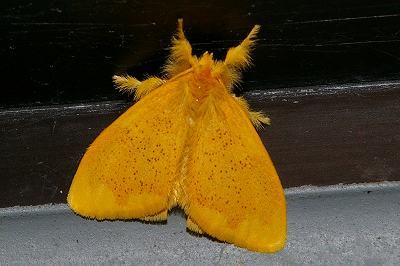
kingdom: Animalia
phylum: Arthropoda
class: Insecta
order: Lepidoptera
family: Erebidae
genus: Somena
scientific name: Somena
